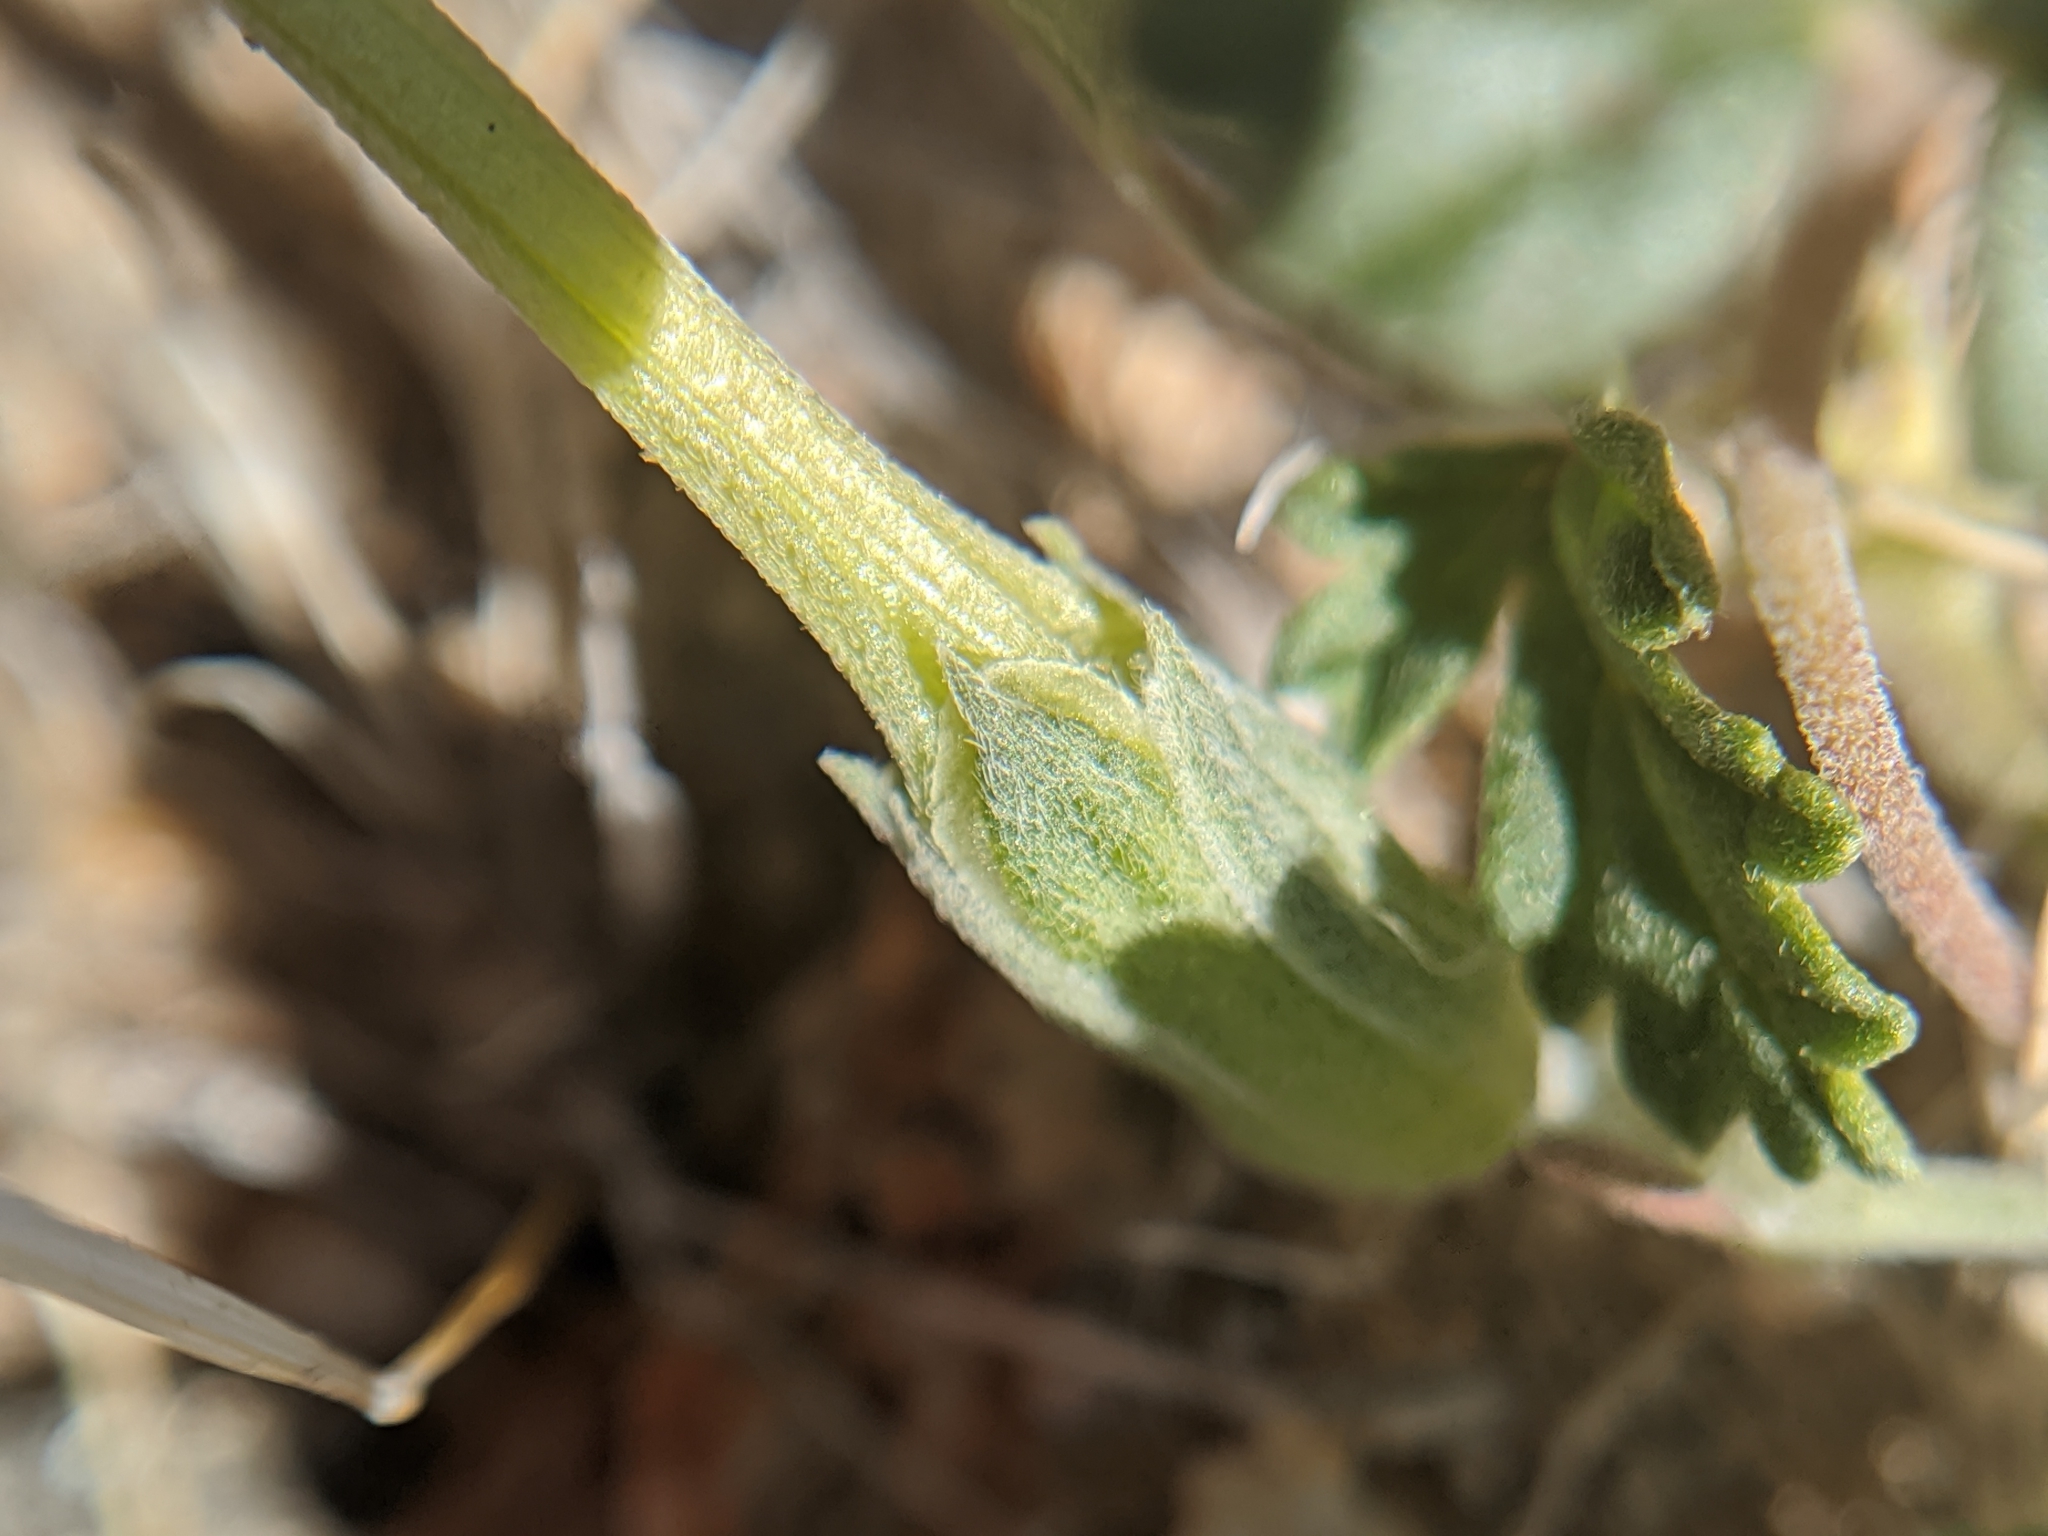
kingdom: Plantae
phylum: Tracheophyta
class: Magnoliopsida
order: Geraniales
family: Geraniaceae
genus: Erodium
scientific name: Erodium texanum
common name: Texas stork's-bill
